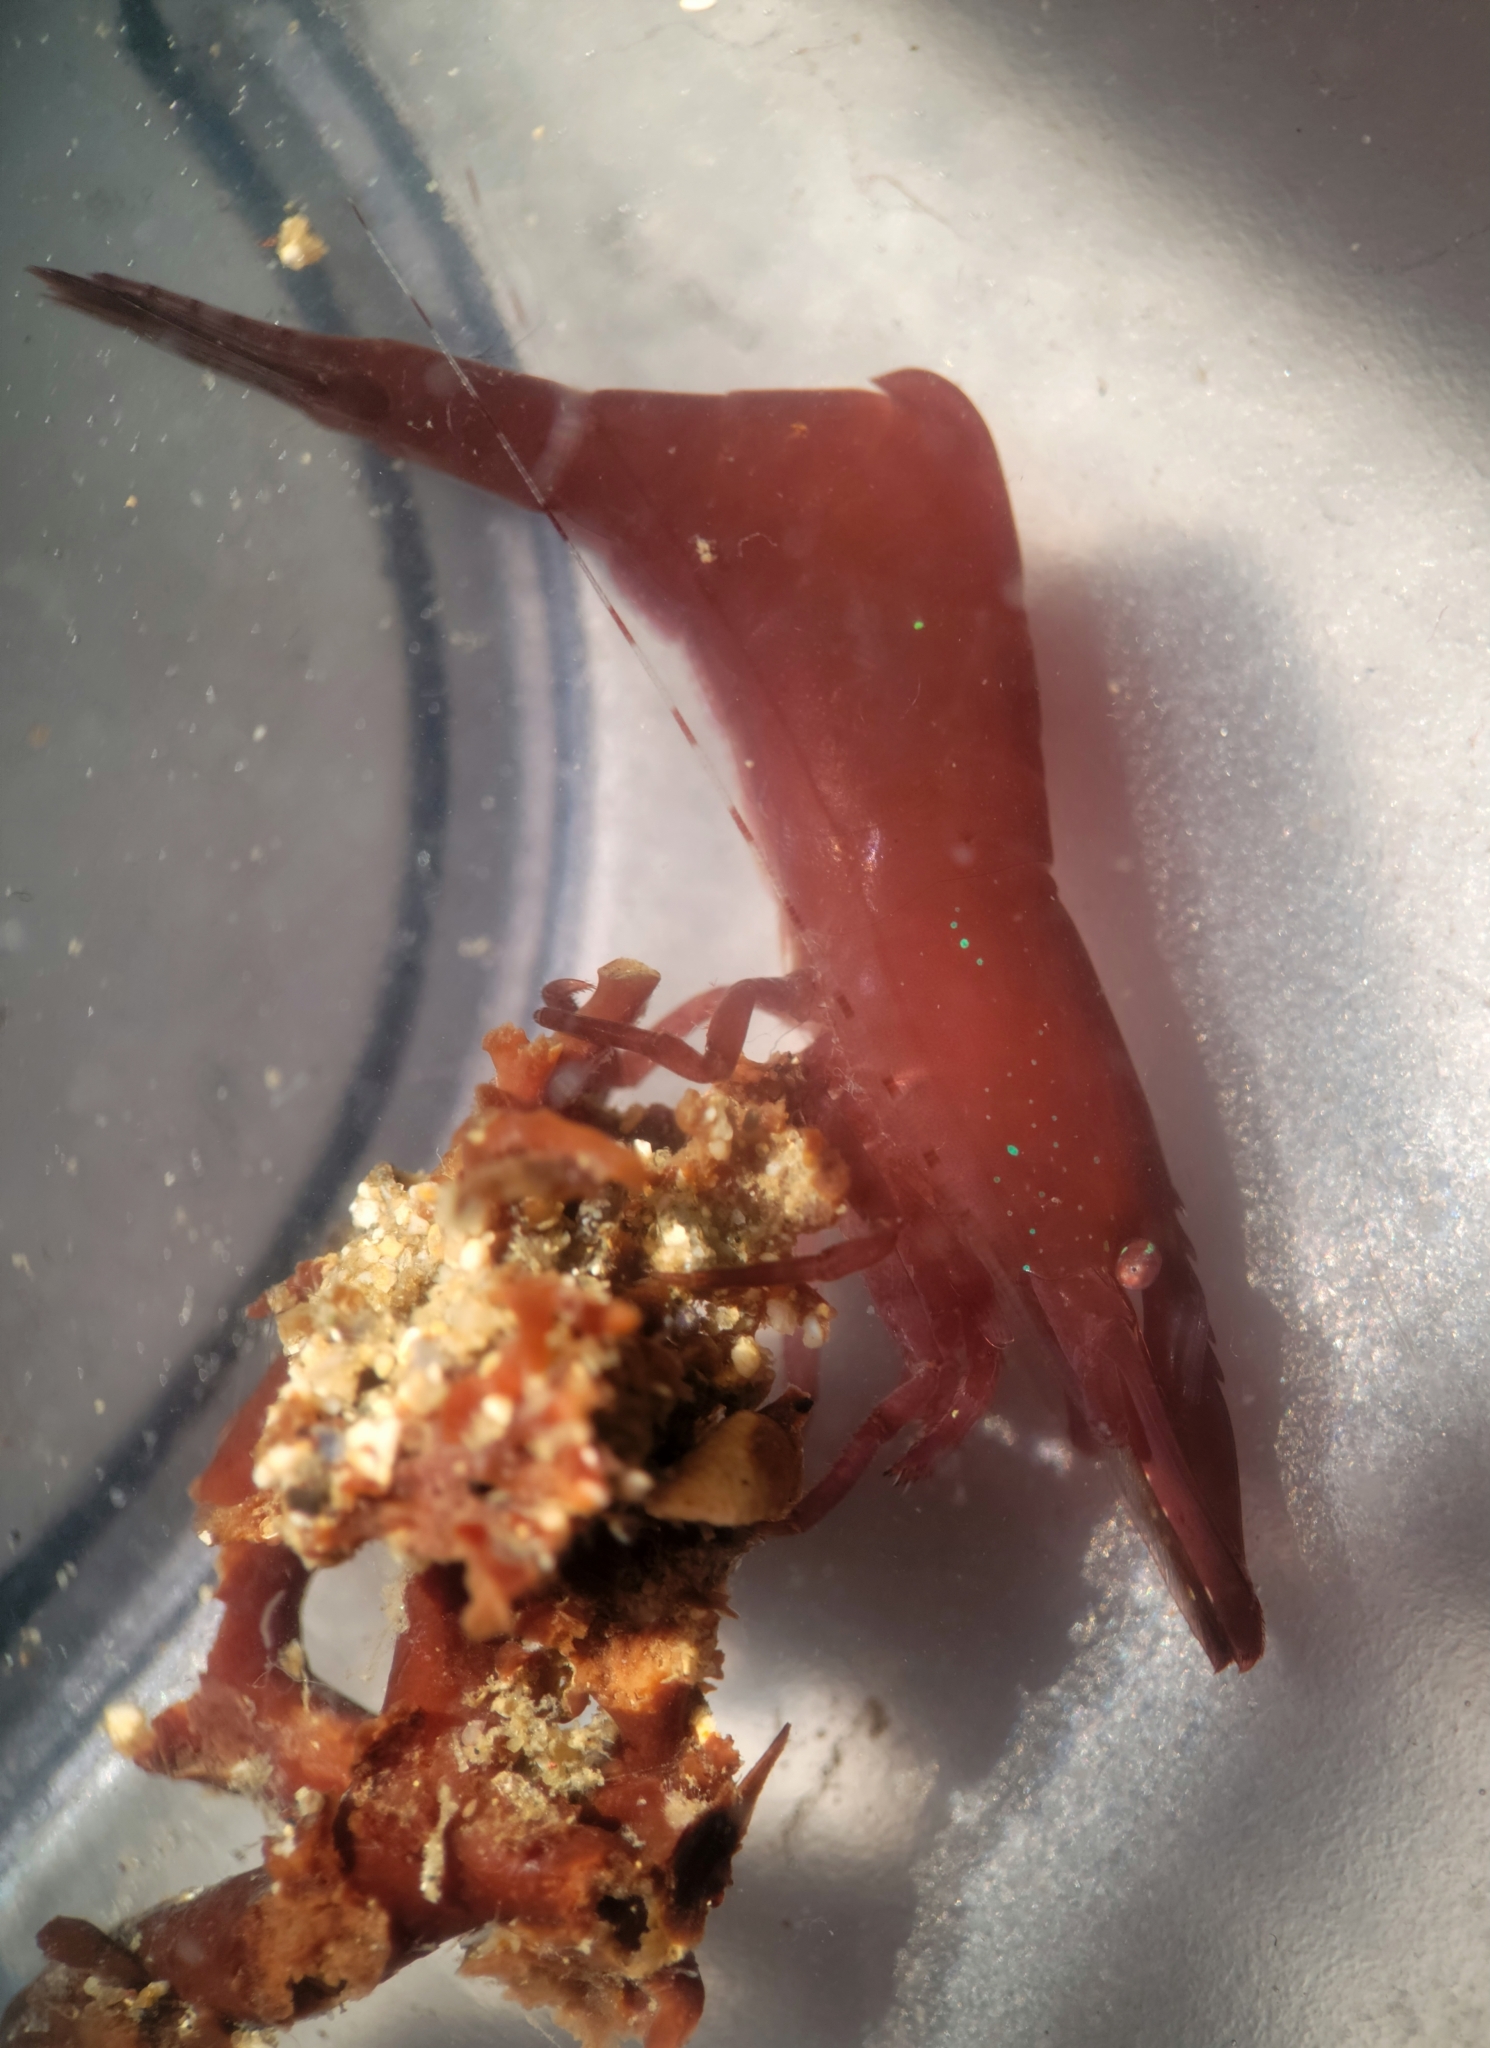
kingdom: Animalia
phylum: Arthropoda
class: Malacostraca
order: Decapoda
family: Thoridae
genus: Heptacarpus
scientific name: Heptacarpus carinatus
